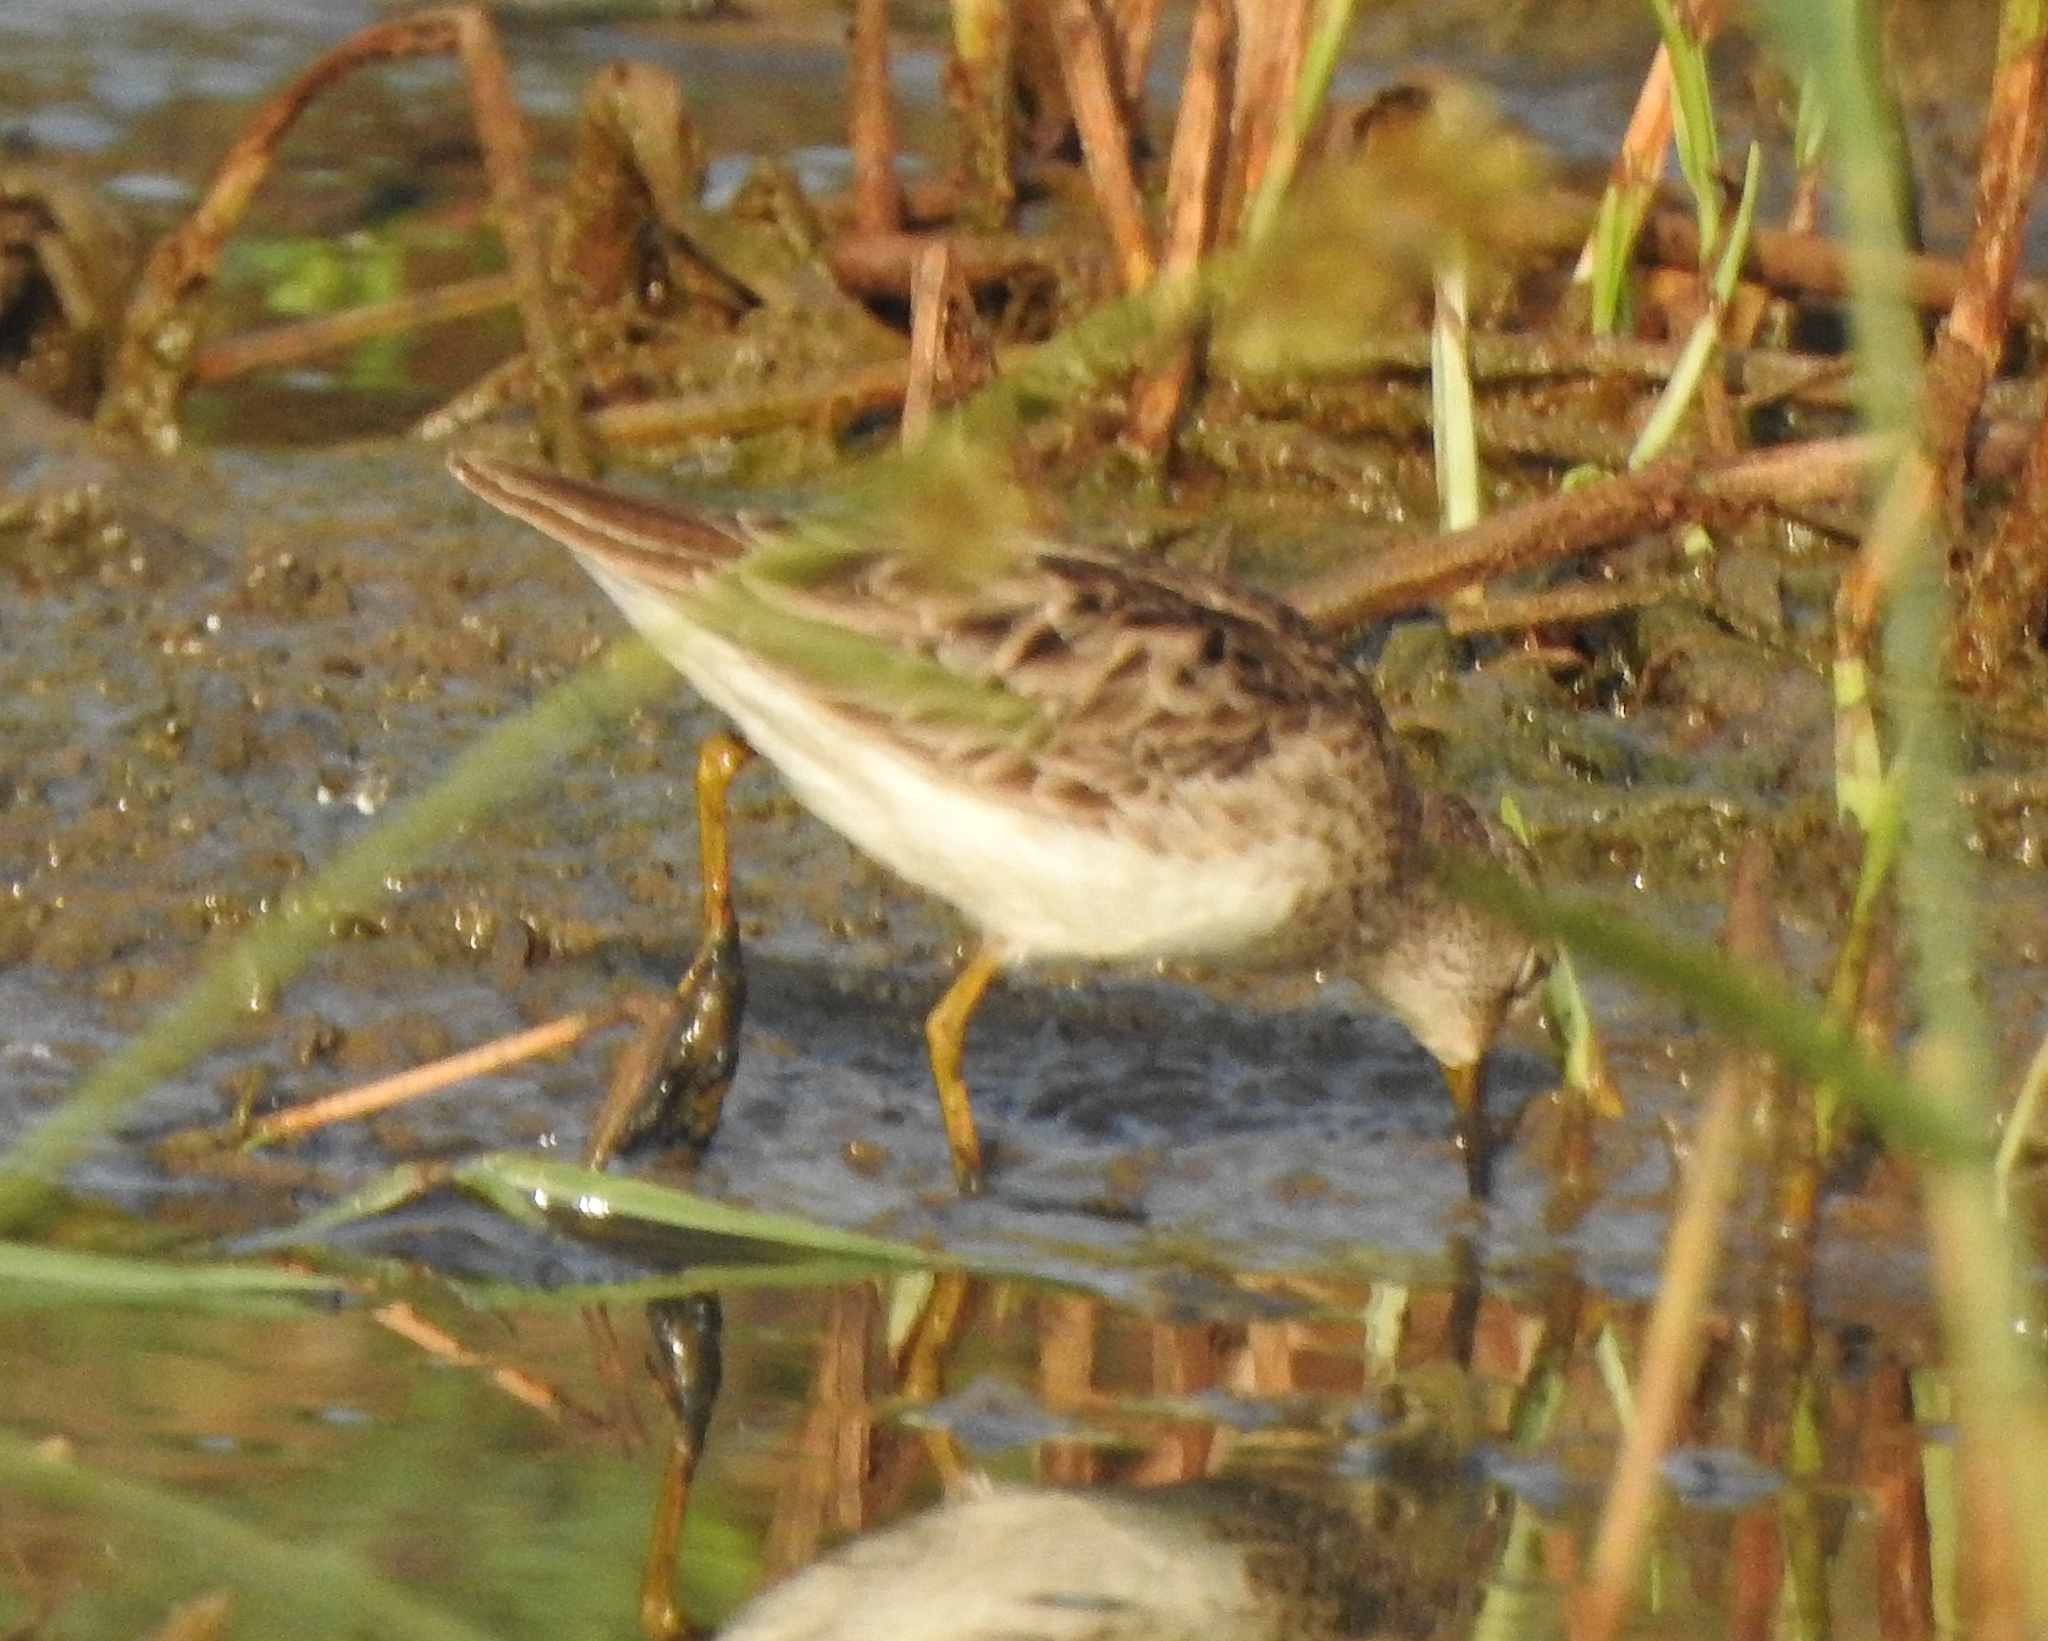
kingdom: Animalia
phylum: Chordata
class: Aves
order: Charadriiformes
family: Scolopacidae
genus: Calidris
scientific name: Calidris subminuta
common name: Long-toed stint
